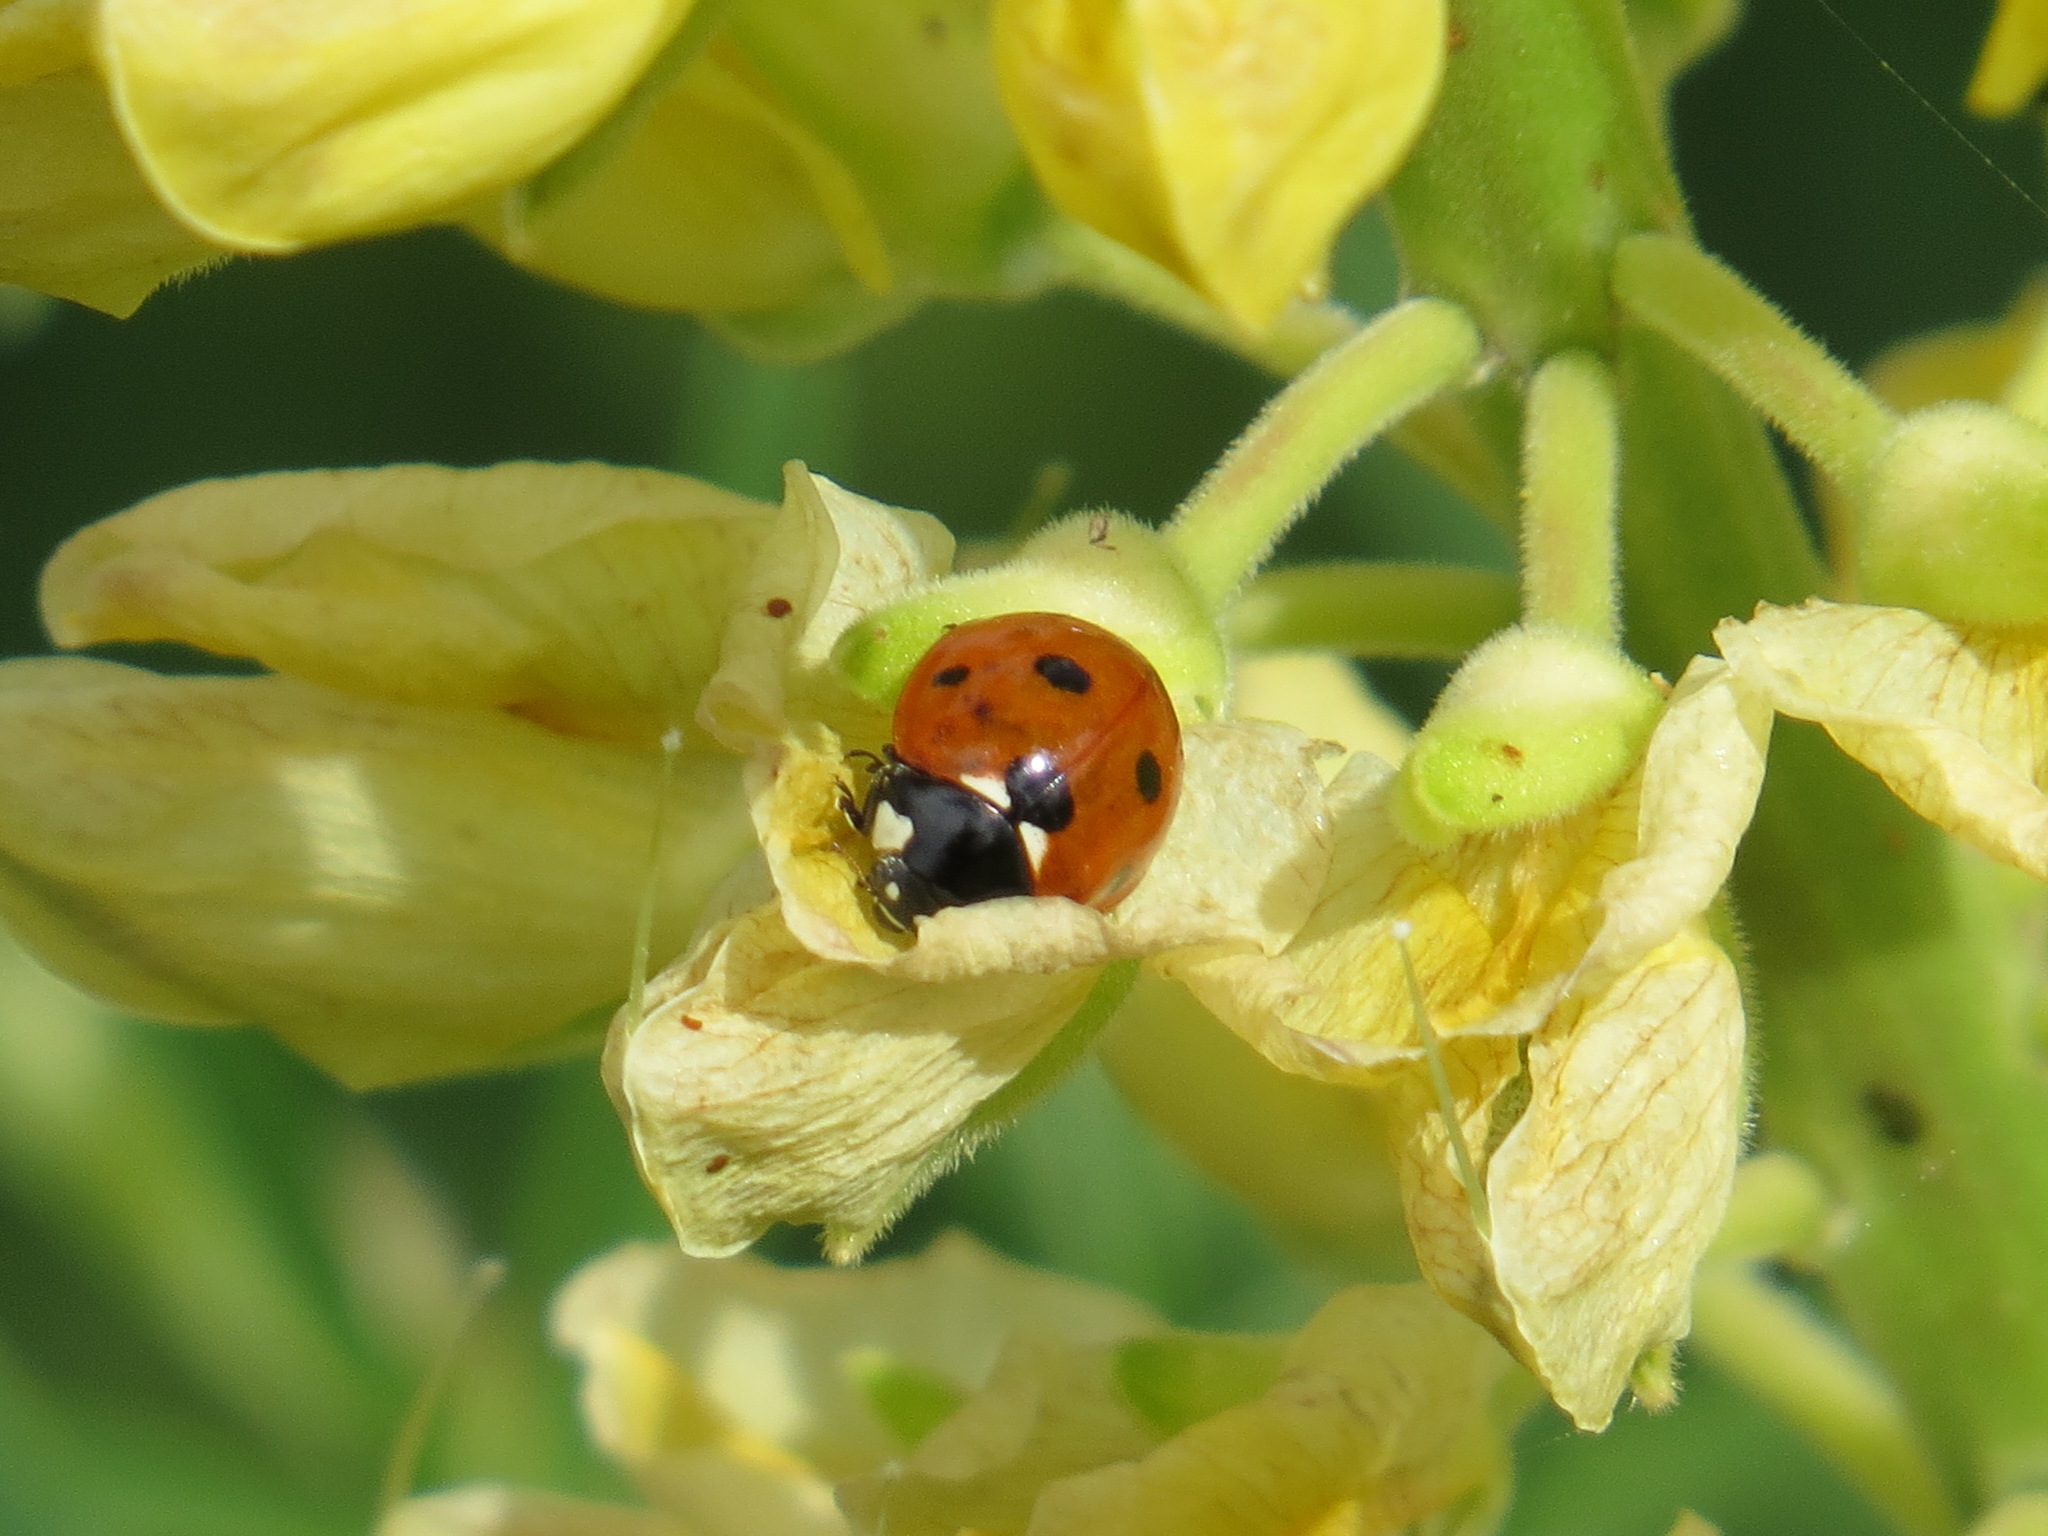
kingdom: Animalia
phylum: Arthropoda
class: Insecta
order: Coleoptera
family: Coccinellidae
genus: Coccinella
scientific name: Coccinella septempunctata
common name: Sevenspotted lady beetle
